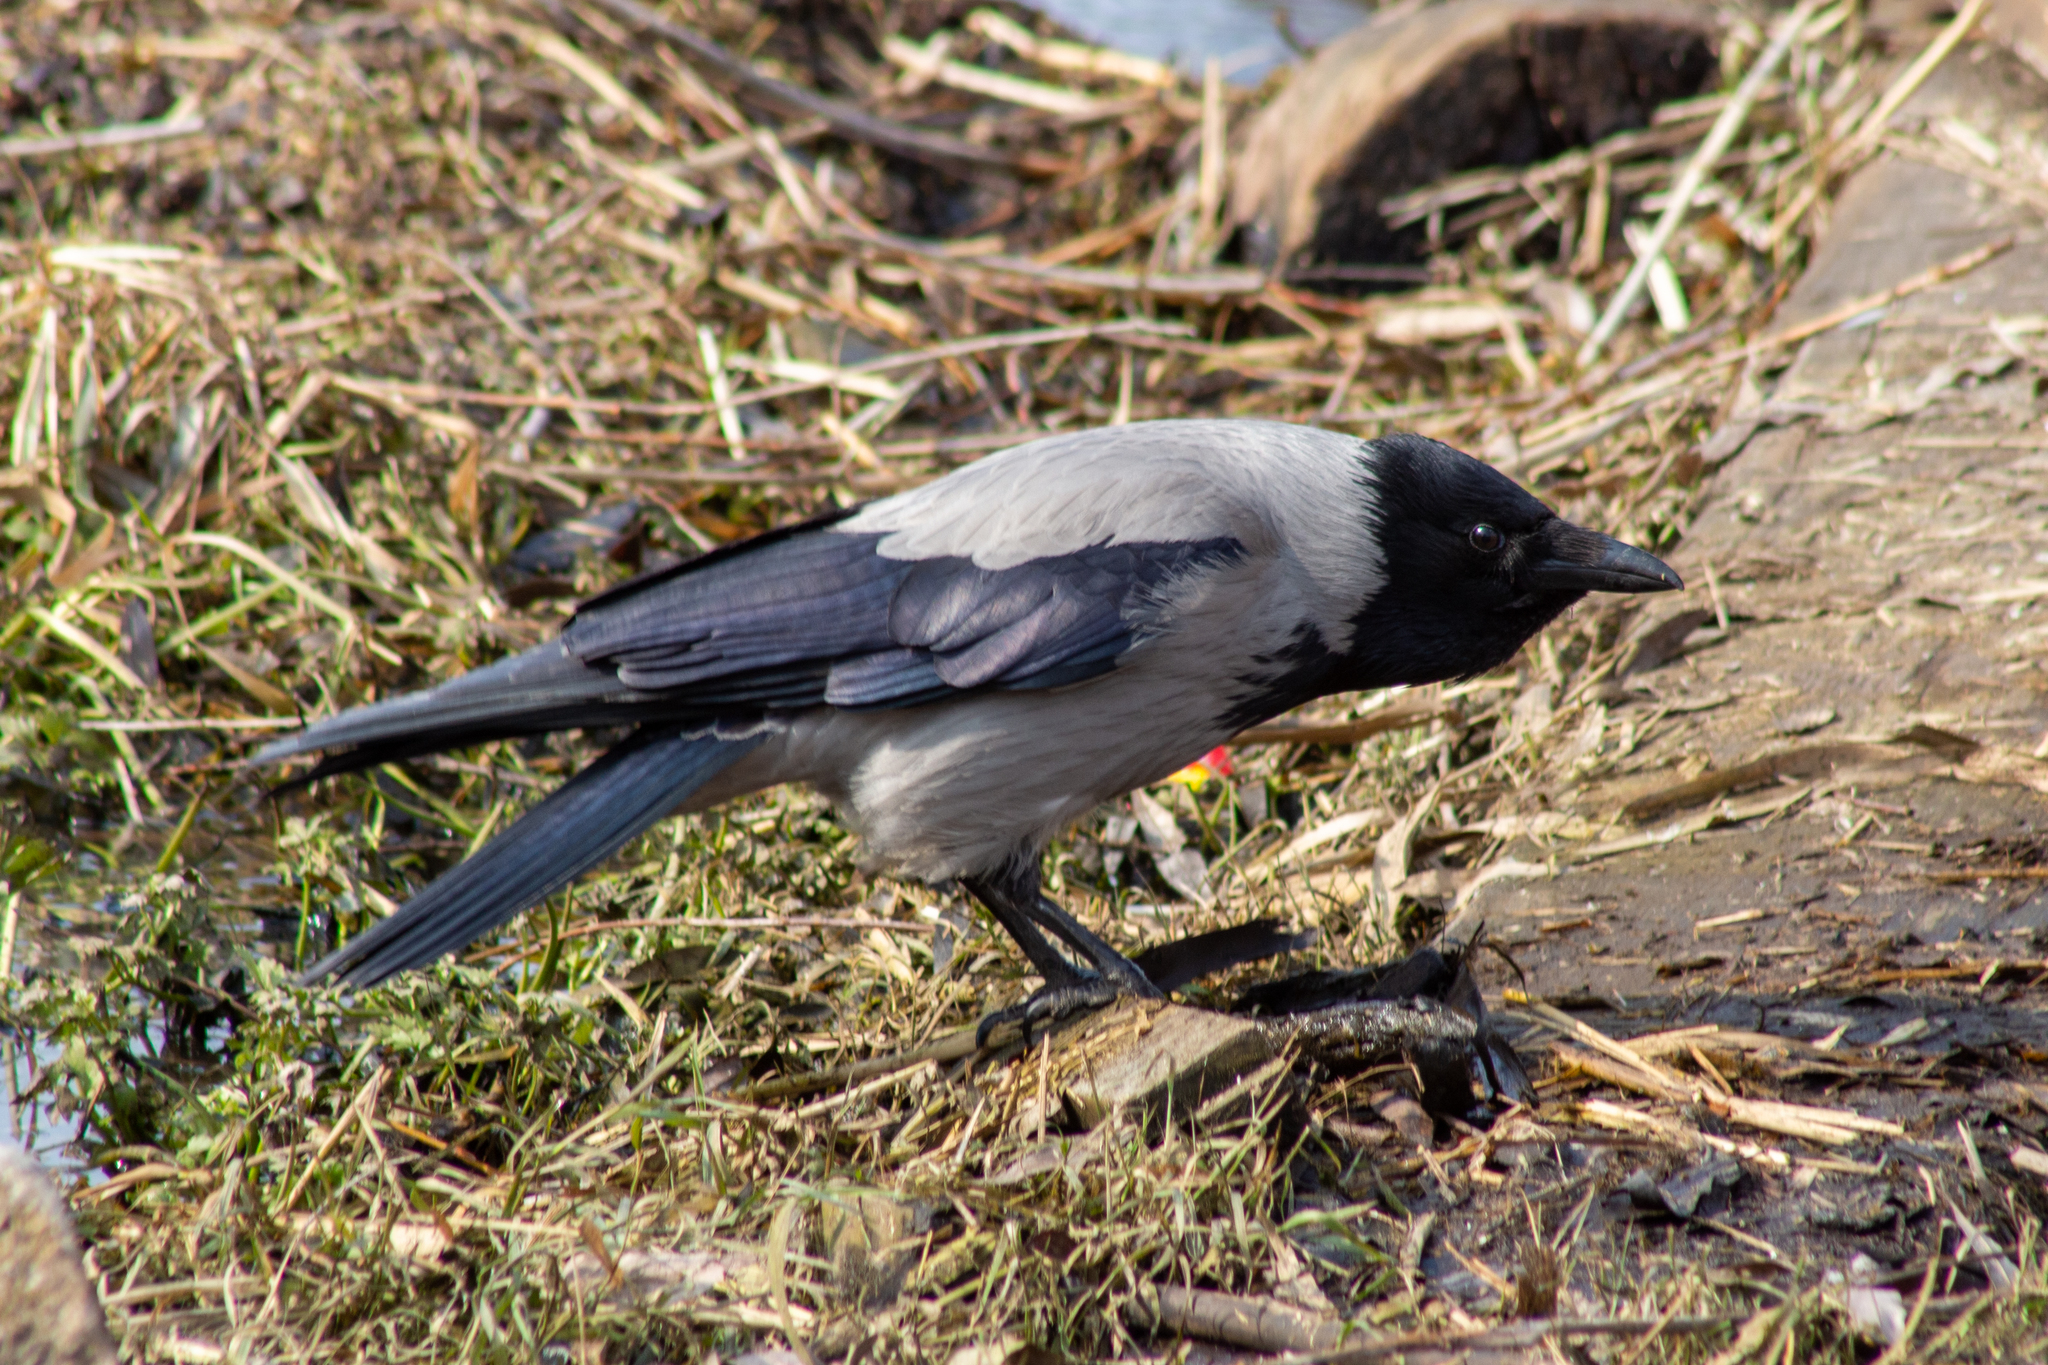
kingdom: Animalia
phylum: Chordata
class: Aves
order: Passeriformes
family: Corvidae
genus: Corvus
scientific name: Corvus cornix
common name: Hooded crow
